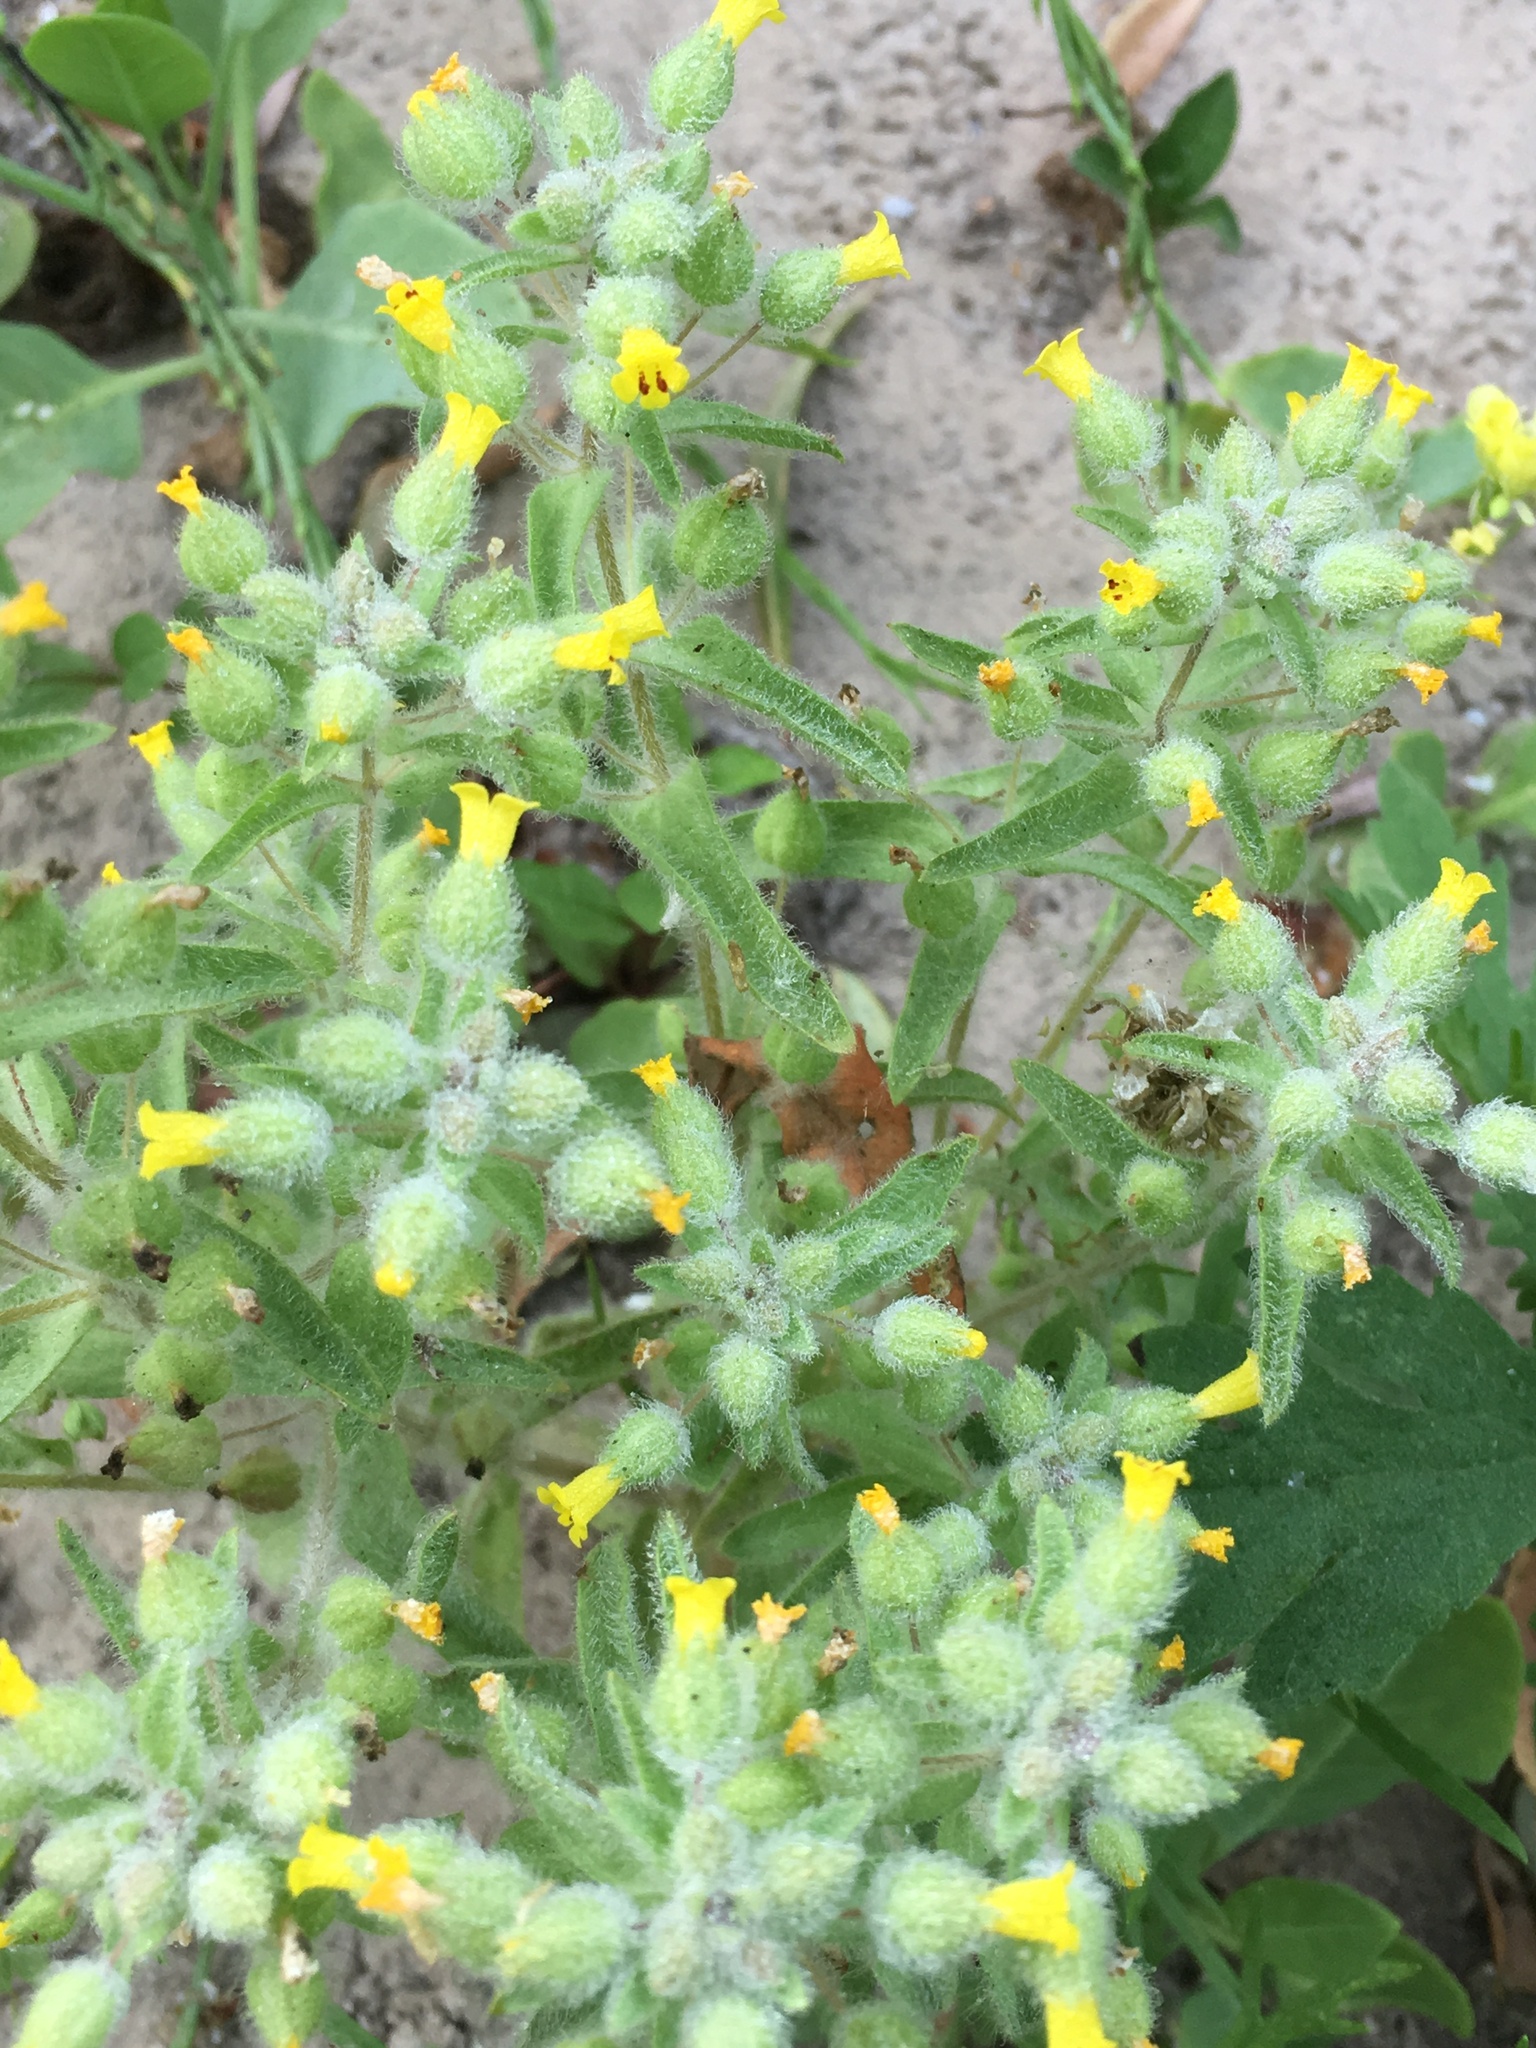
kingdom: Plantae
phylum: Tracheophyta
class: Magnoliopsida
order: Lamiales
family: Phrymaceae
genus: Mimetanthe
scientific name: Mimetanthe pilosa
